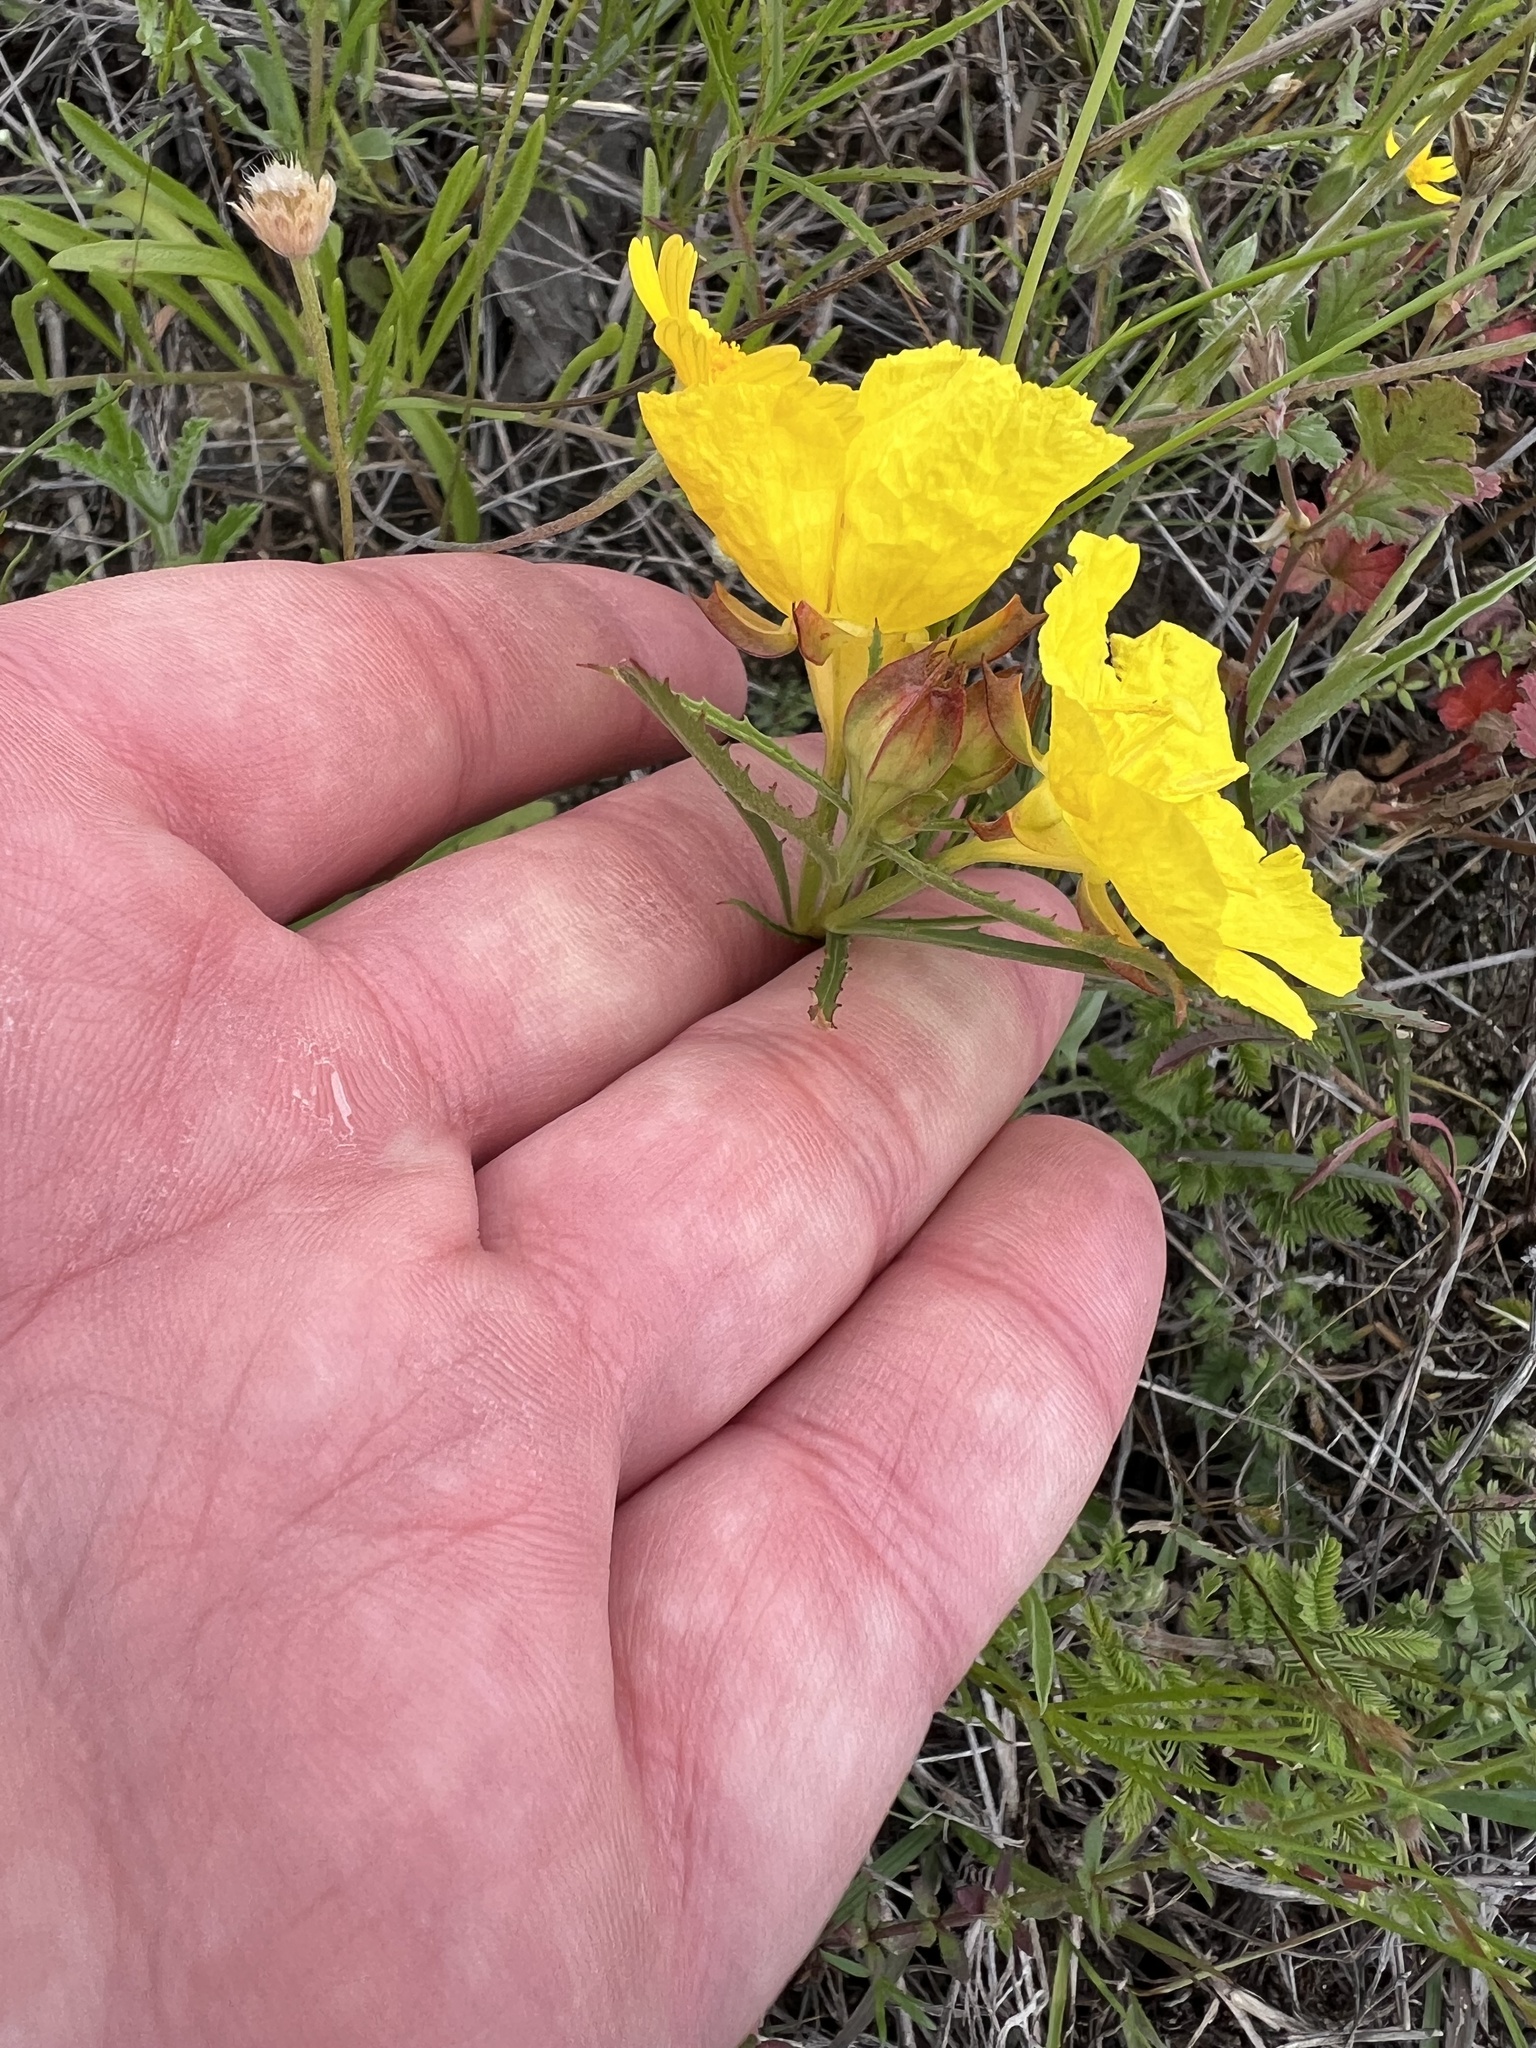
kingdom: Plantae
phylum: Tracheophyta
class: Magnoliopsida
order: Myrtales
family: Onagraceae
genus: Oenothera
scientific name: Oenothera
